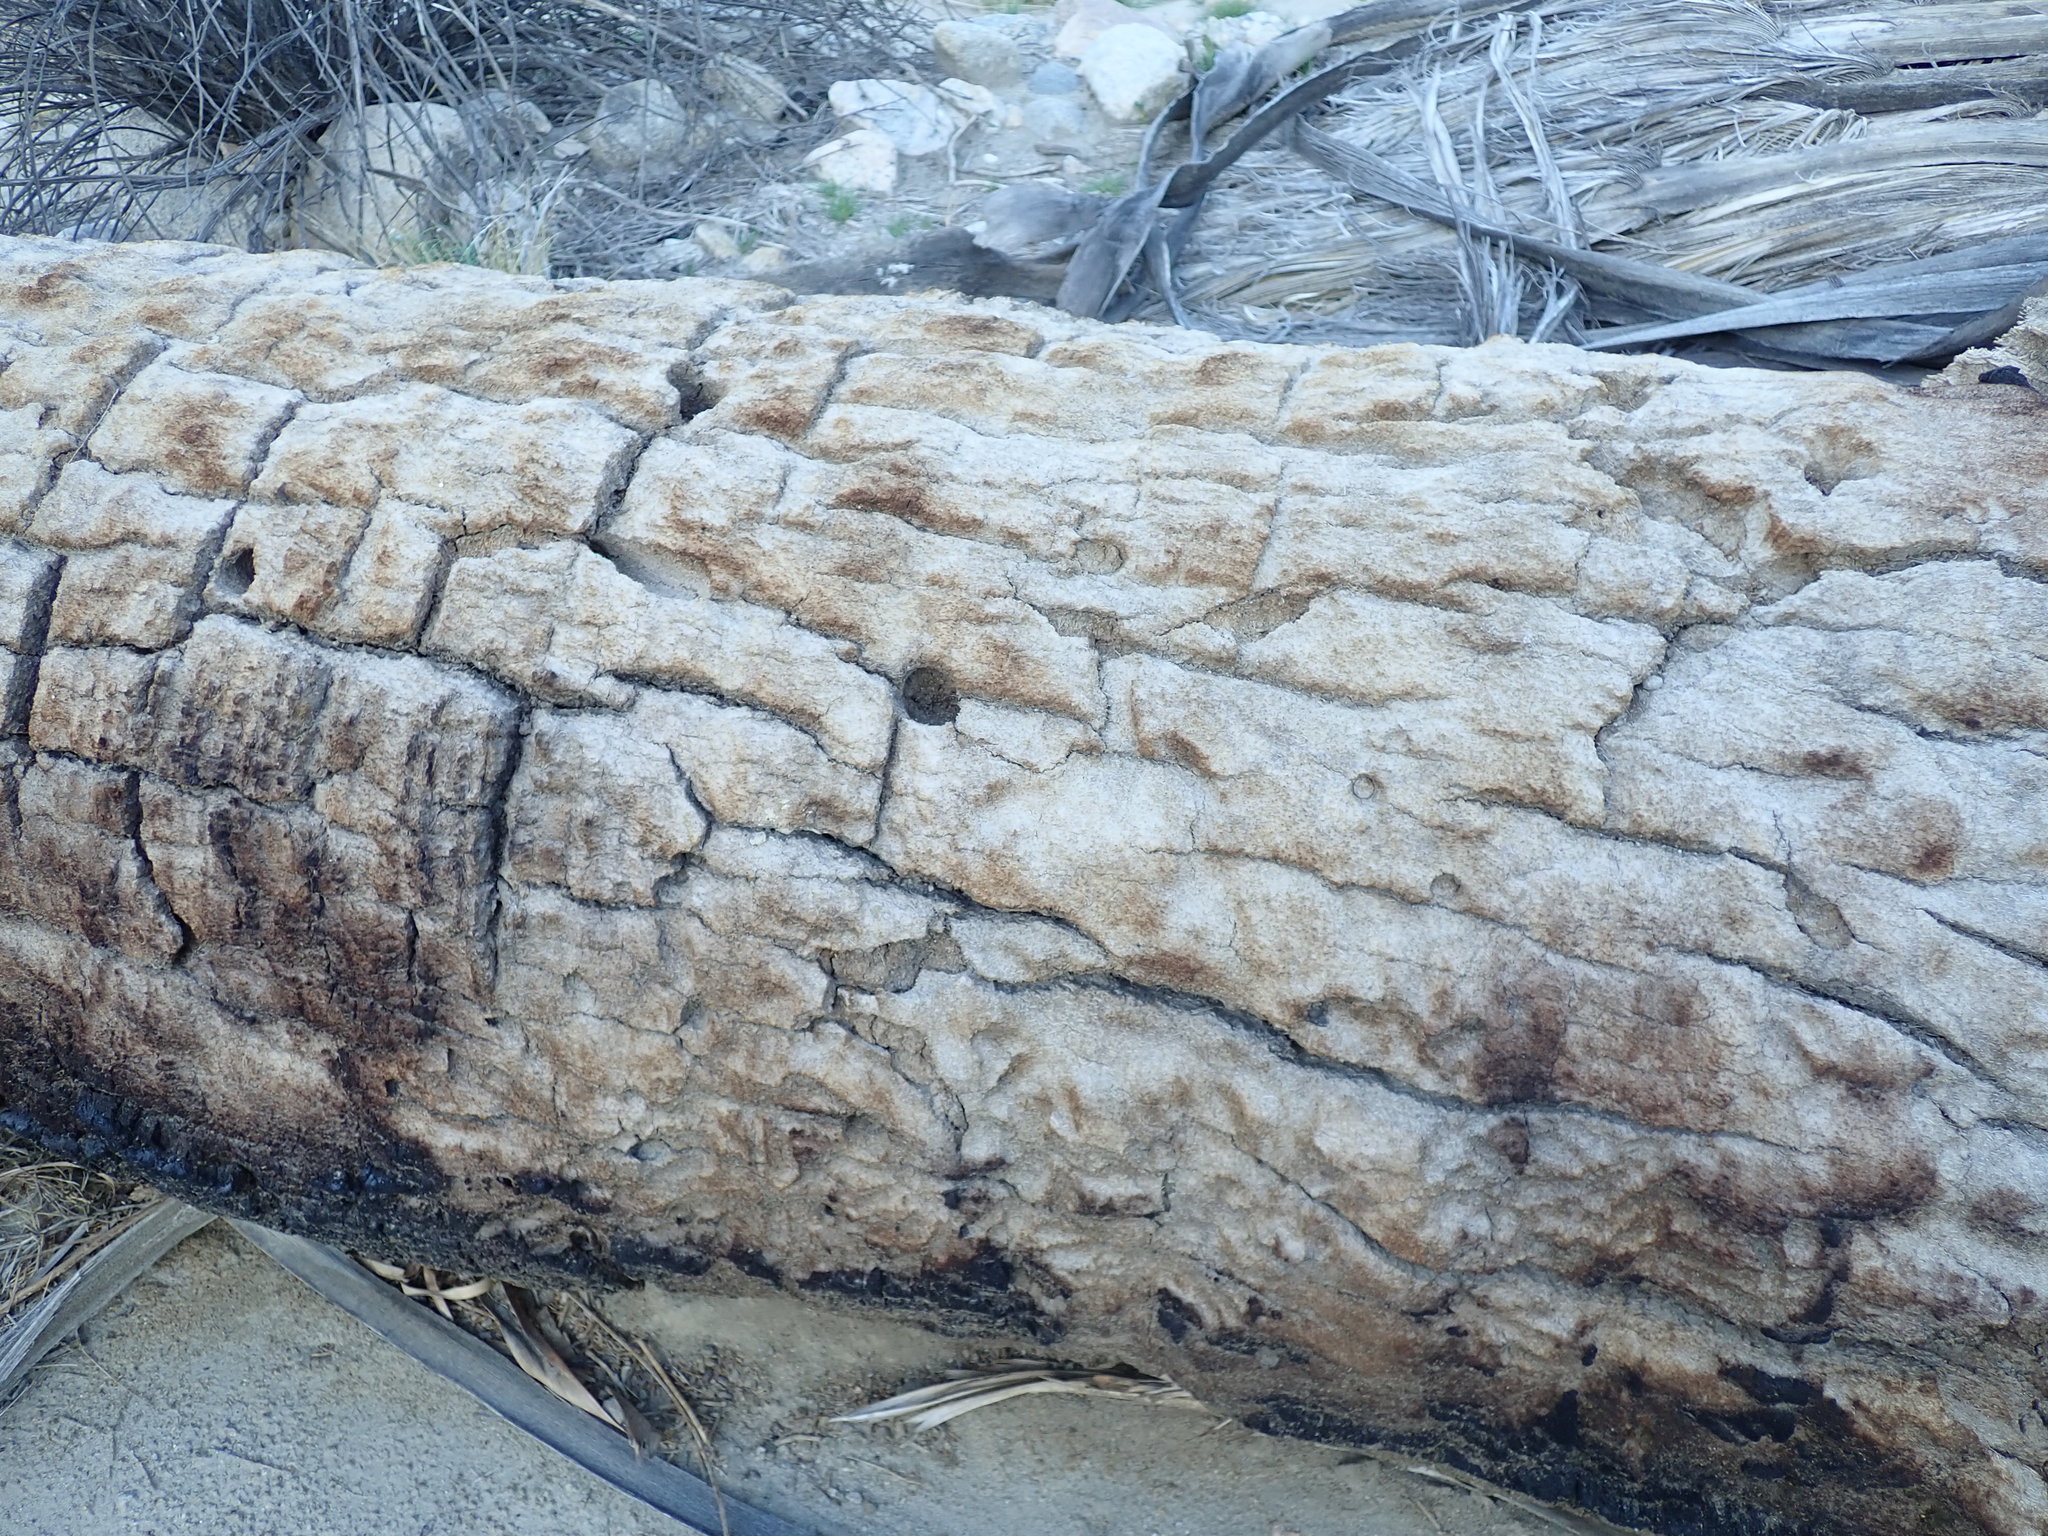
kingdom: Plantae
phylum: Tracheophyta
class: Liliopsida
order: Arecales
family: Arecaceae
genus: Washingtonia
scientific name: Washingtonia filifera
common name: California fan palm
